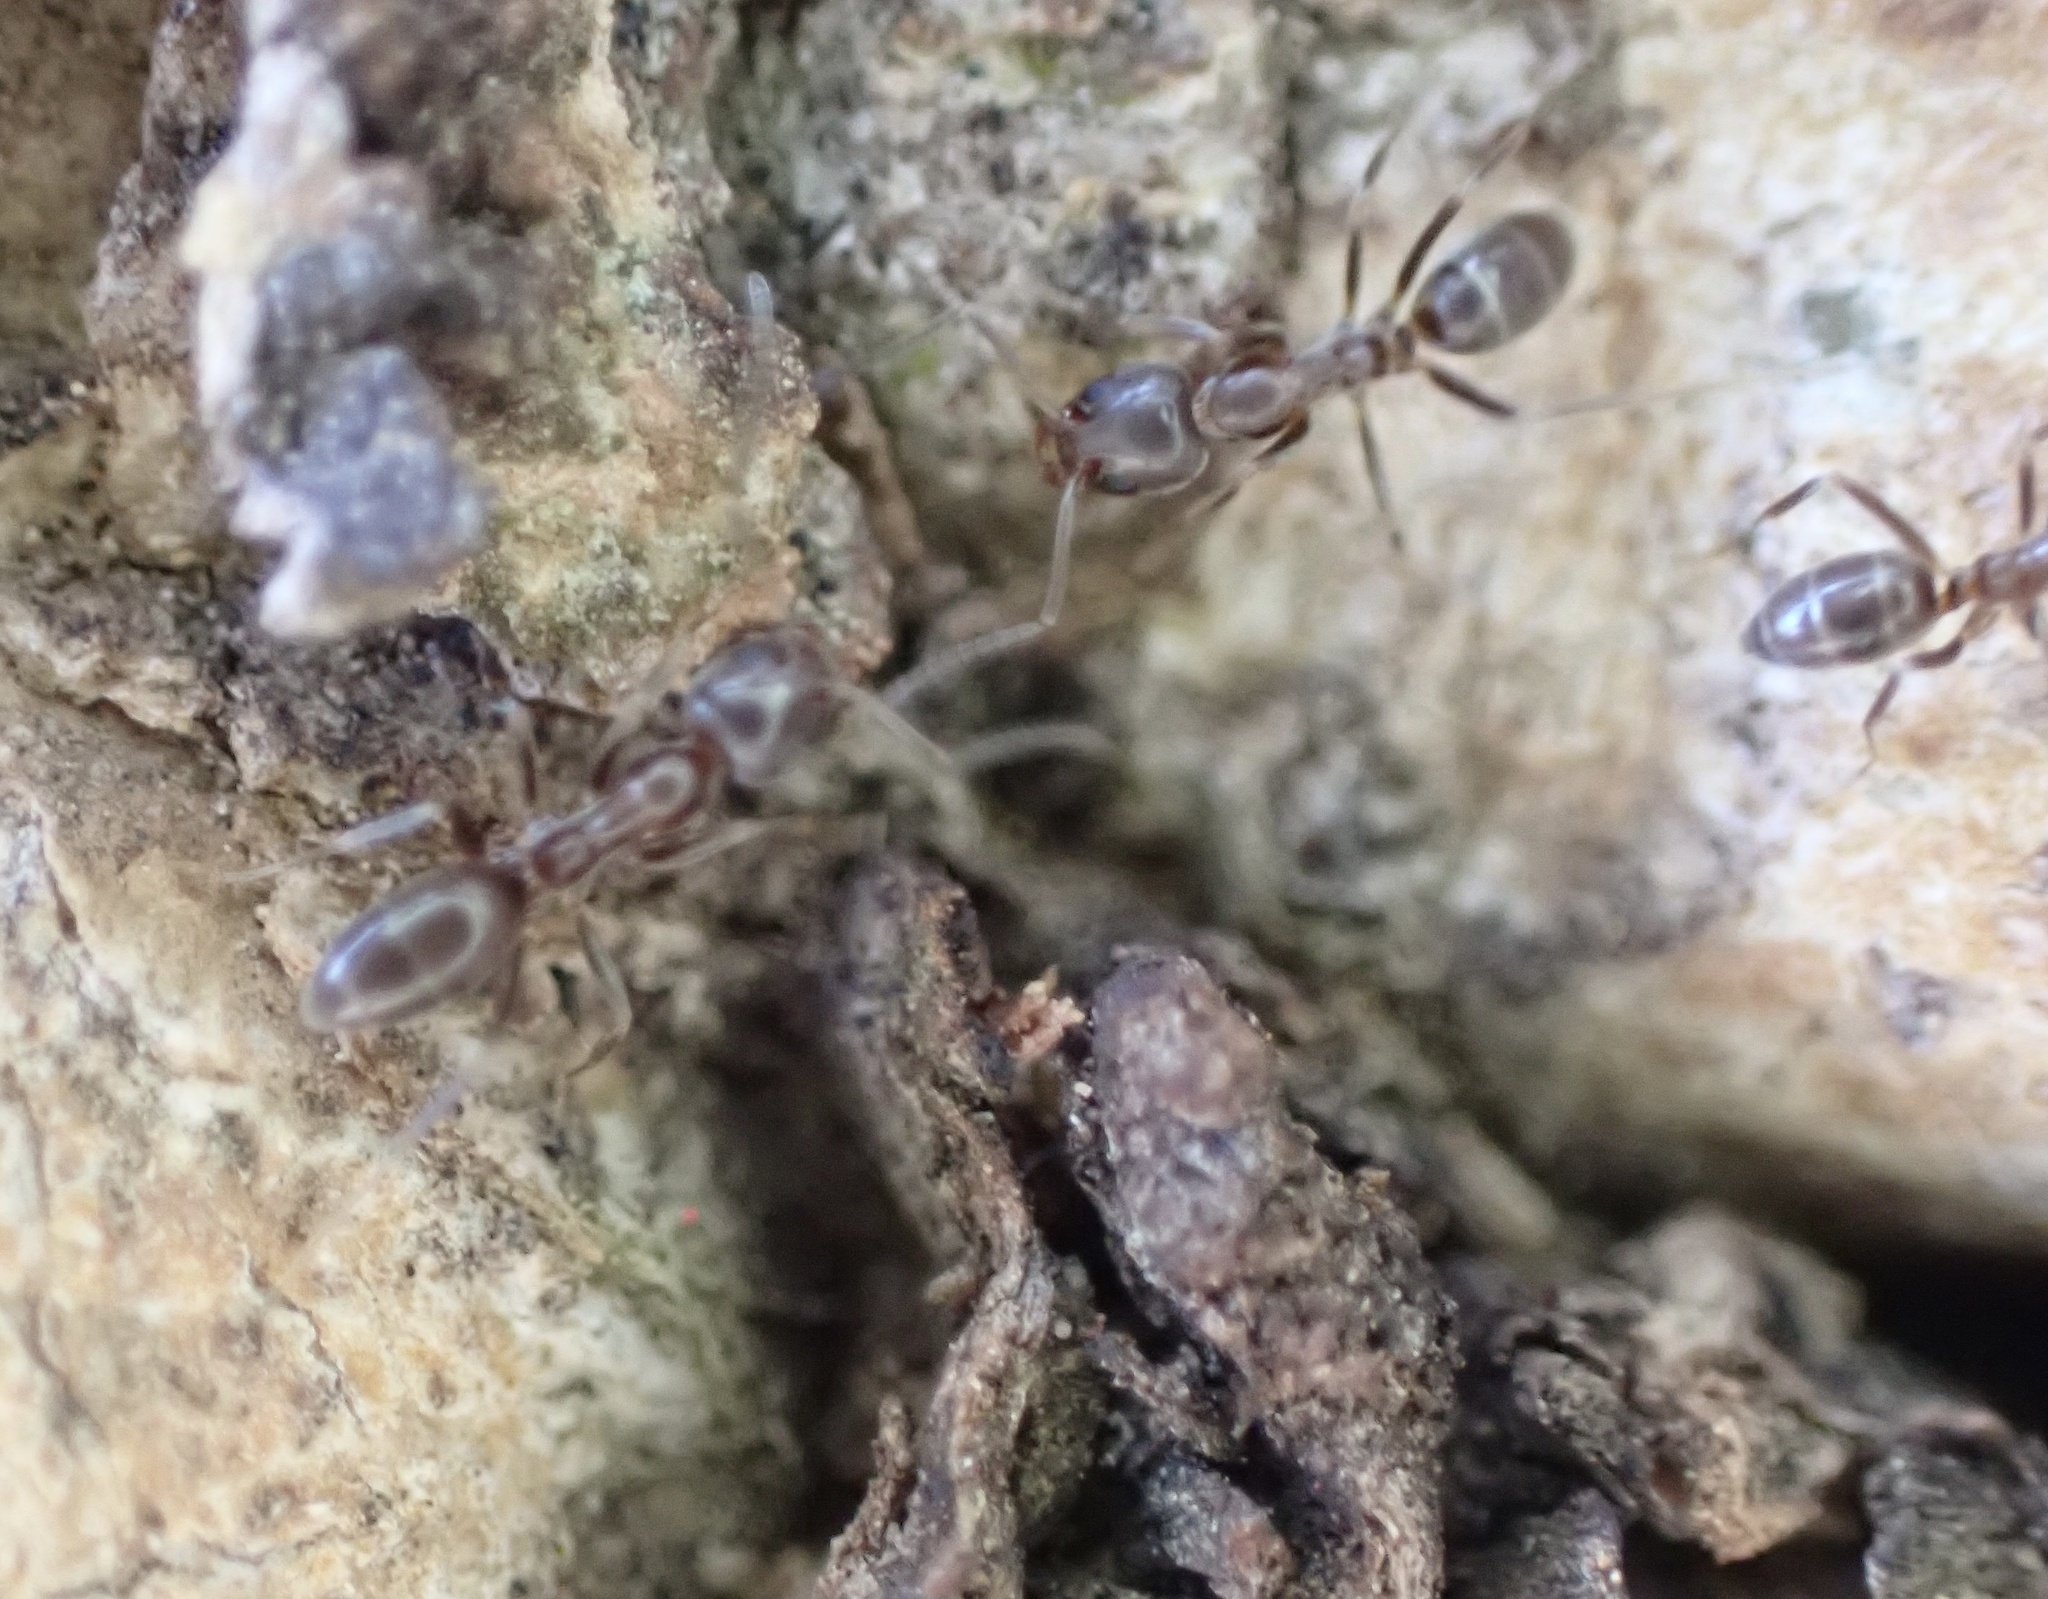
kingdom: Animalia
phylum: Arthropoda
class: Insecta
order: Hymenoptera
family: Formicidae
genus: Linepithema
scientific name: Linepithema humile
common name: Argentine ant
